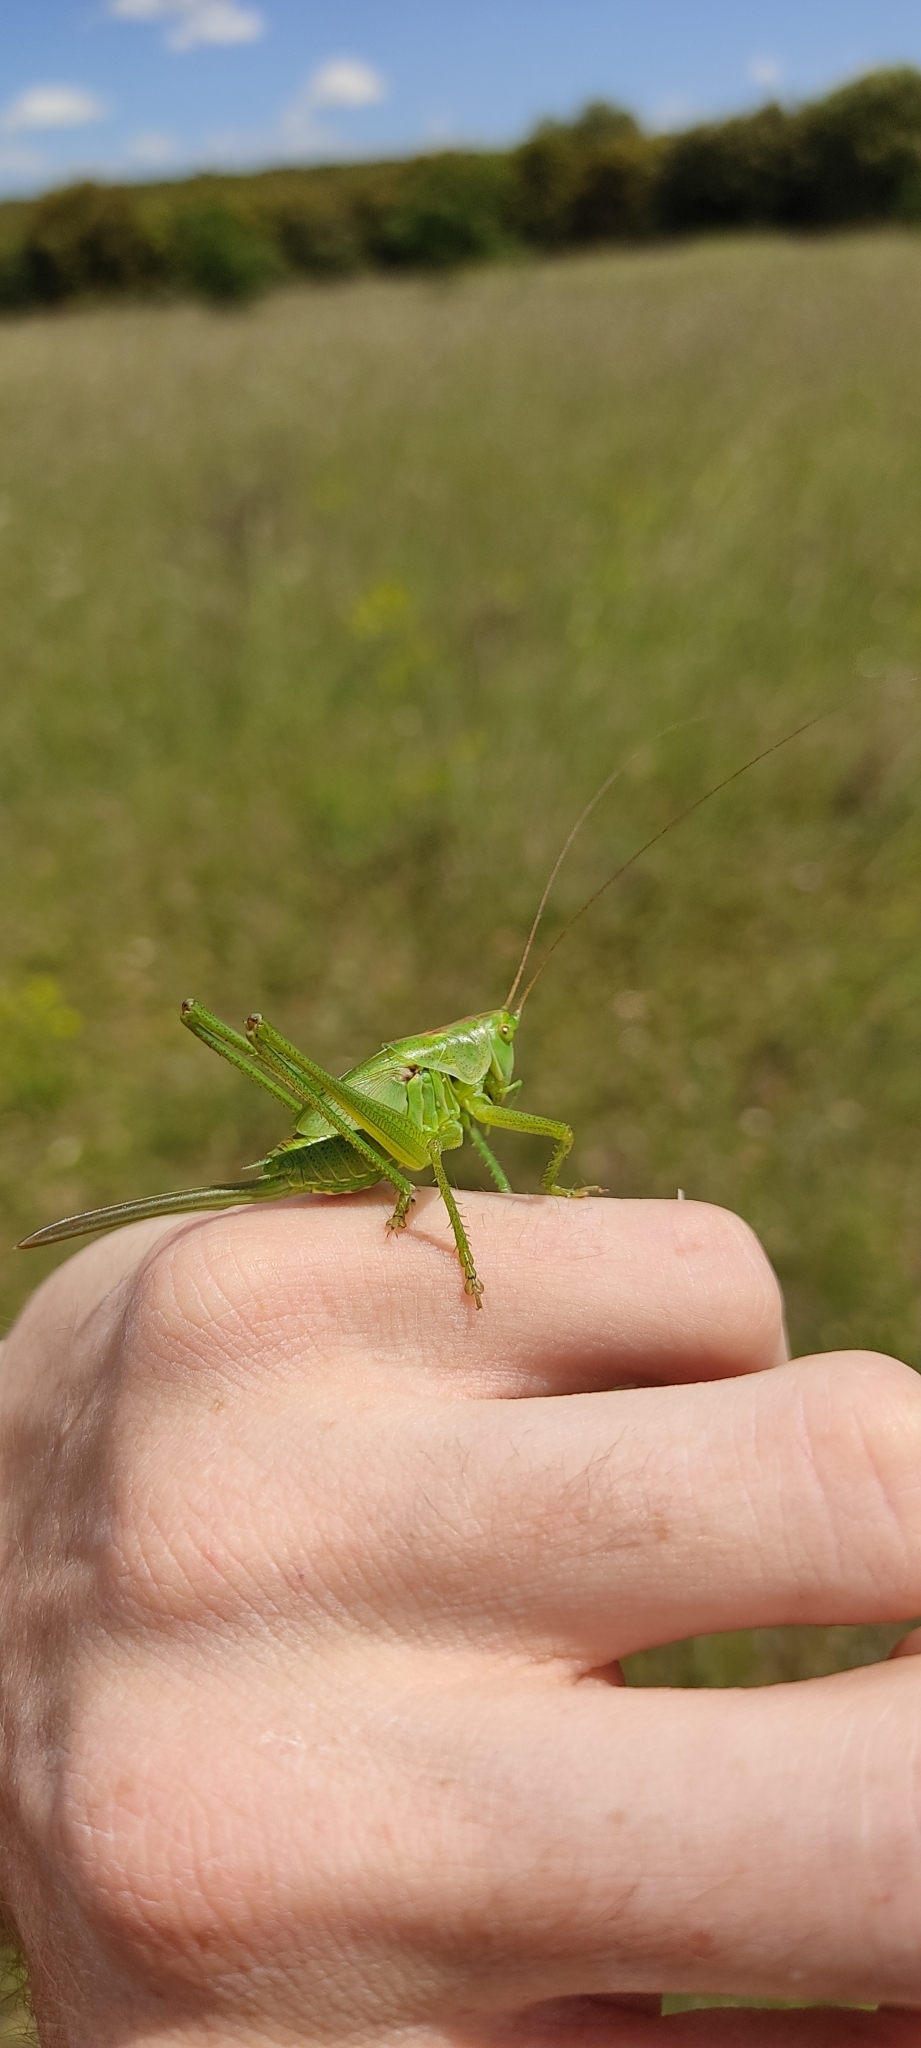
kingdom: Animalia
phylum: Arthropoda
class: Insecta
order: Orthoptera
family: Tettigoniidae
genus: Tettigonia
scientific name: Tettigonia viridissima
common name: Great green bush-cricket
